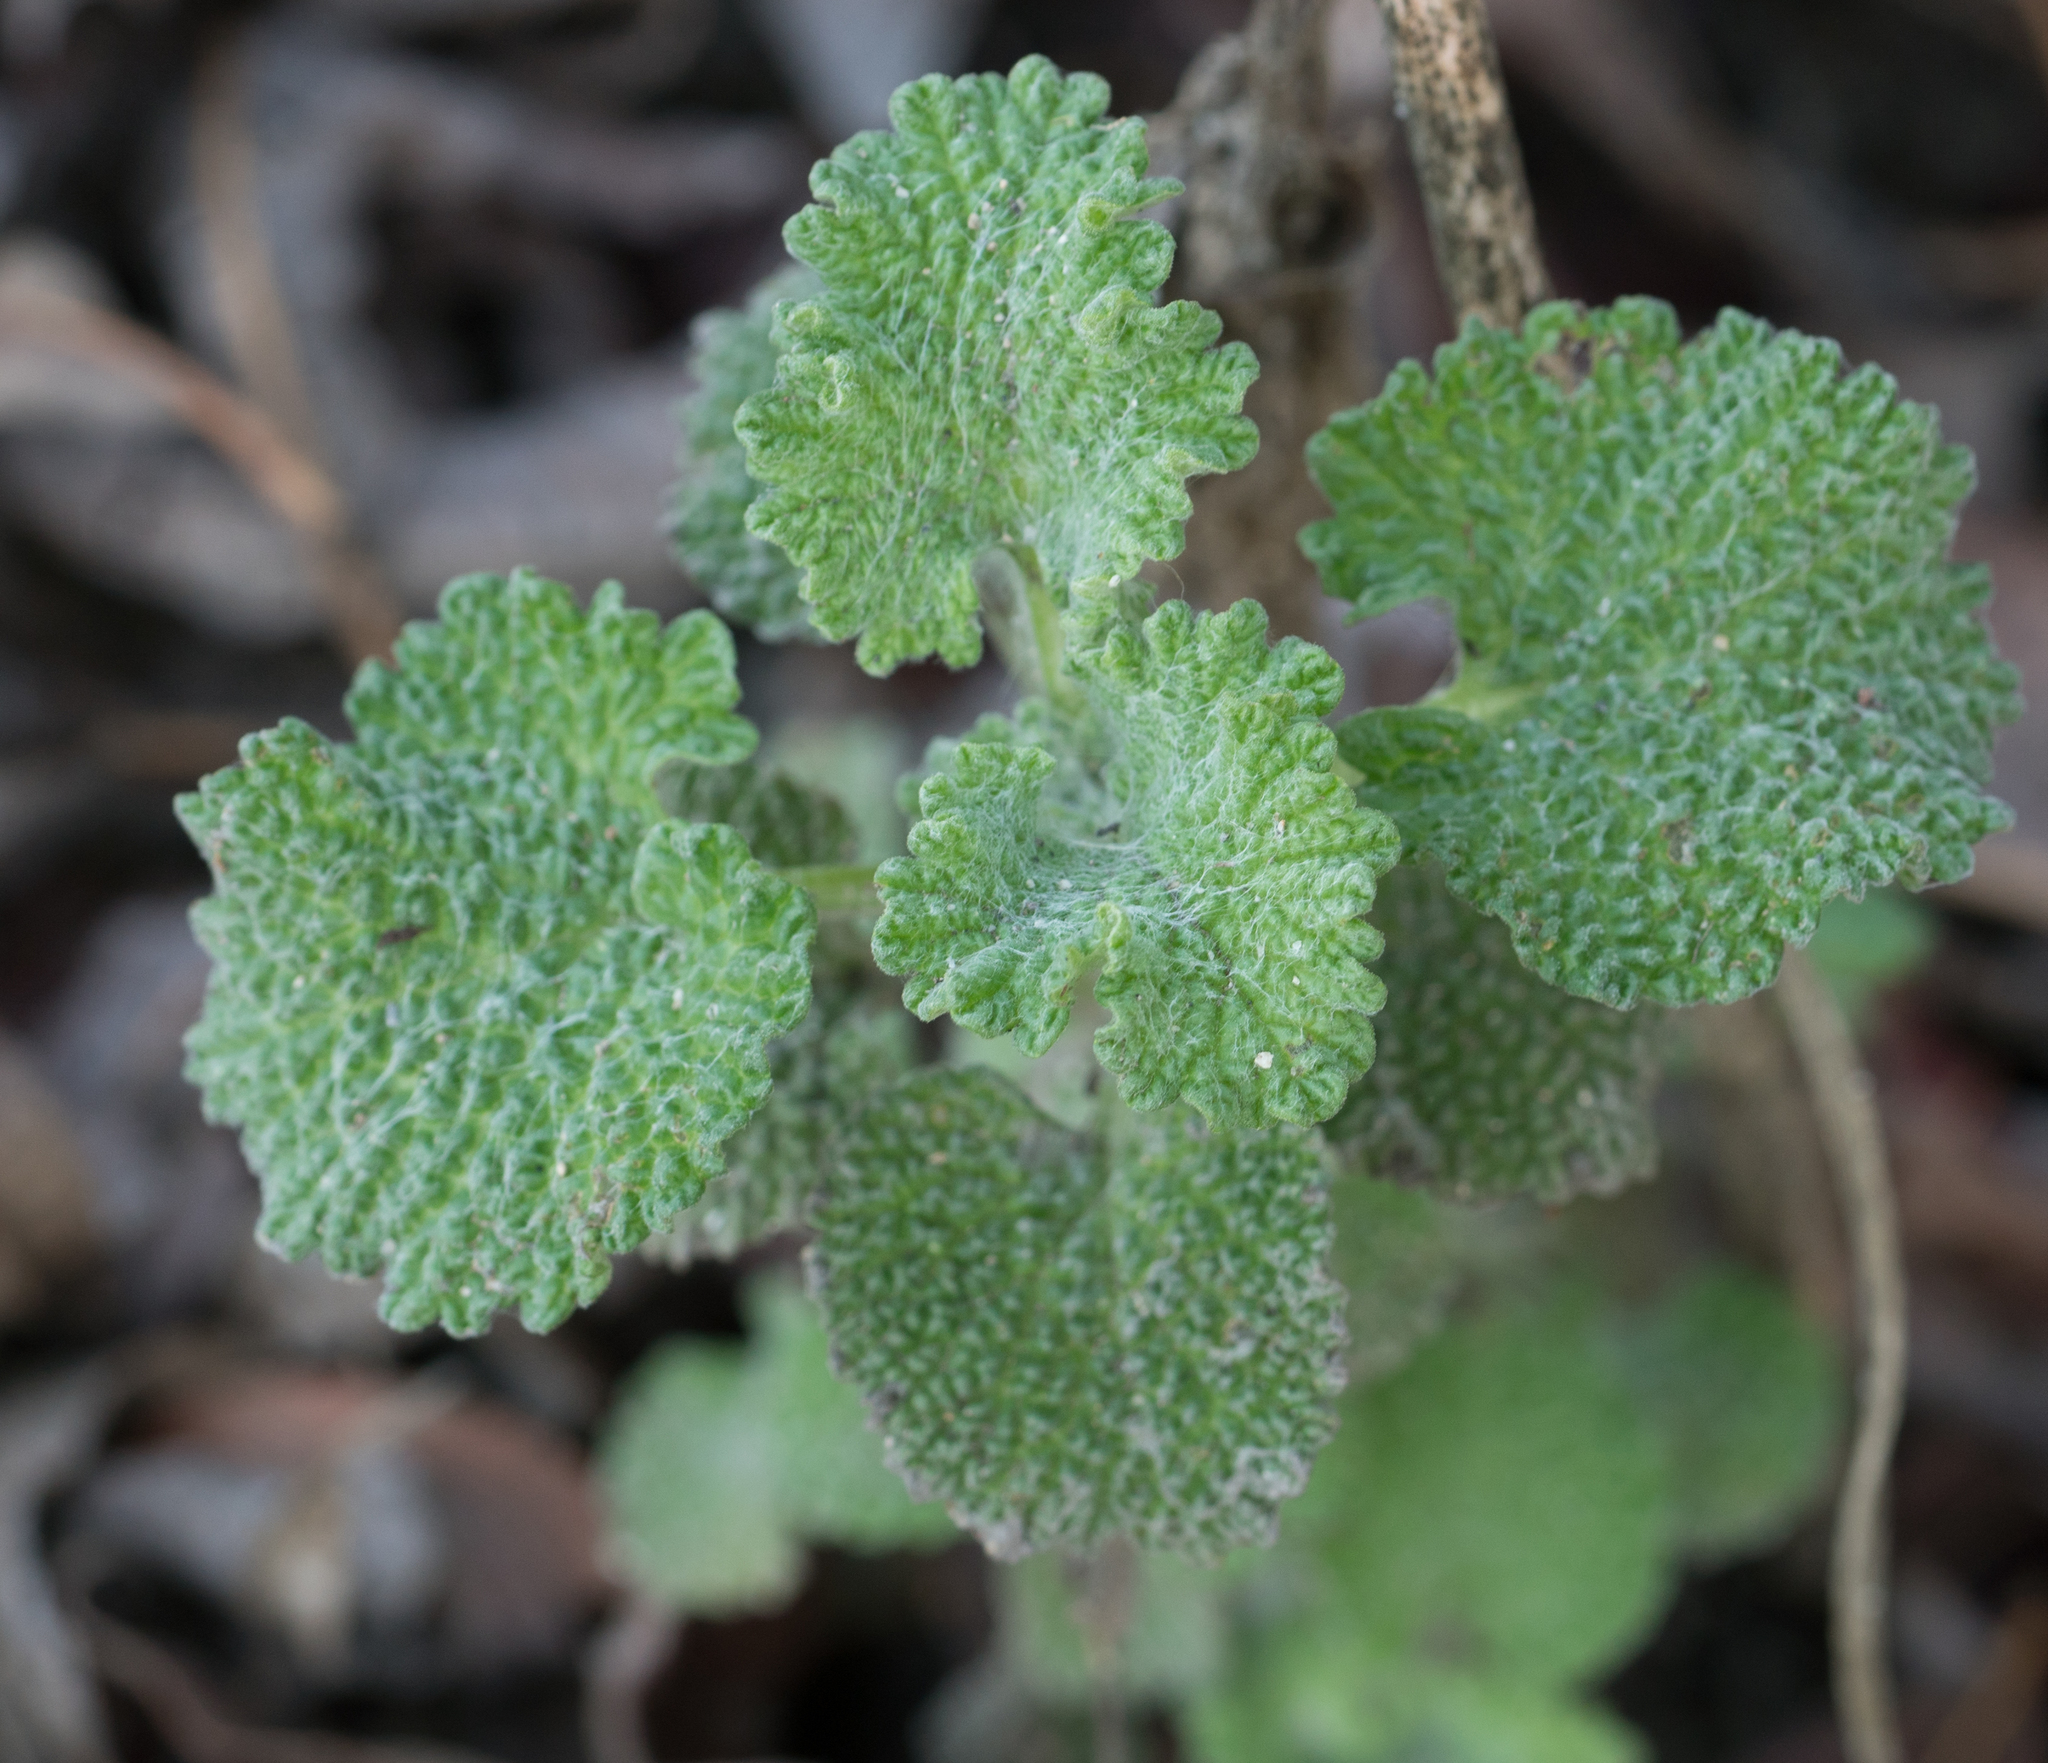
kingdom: Plantae
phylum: Tracheophyta
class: Magnoliopsida
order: Lamiales
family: Lamiaceae
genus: Marrubium
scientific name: Marrubium vulgare
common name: Horehound
